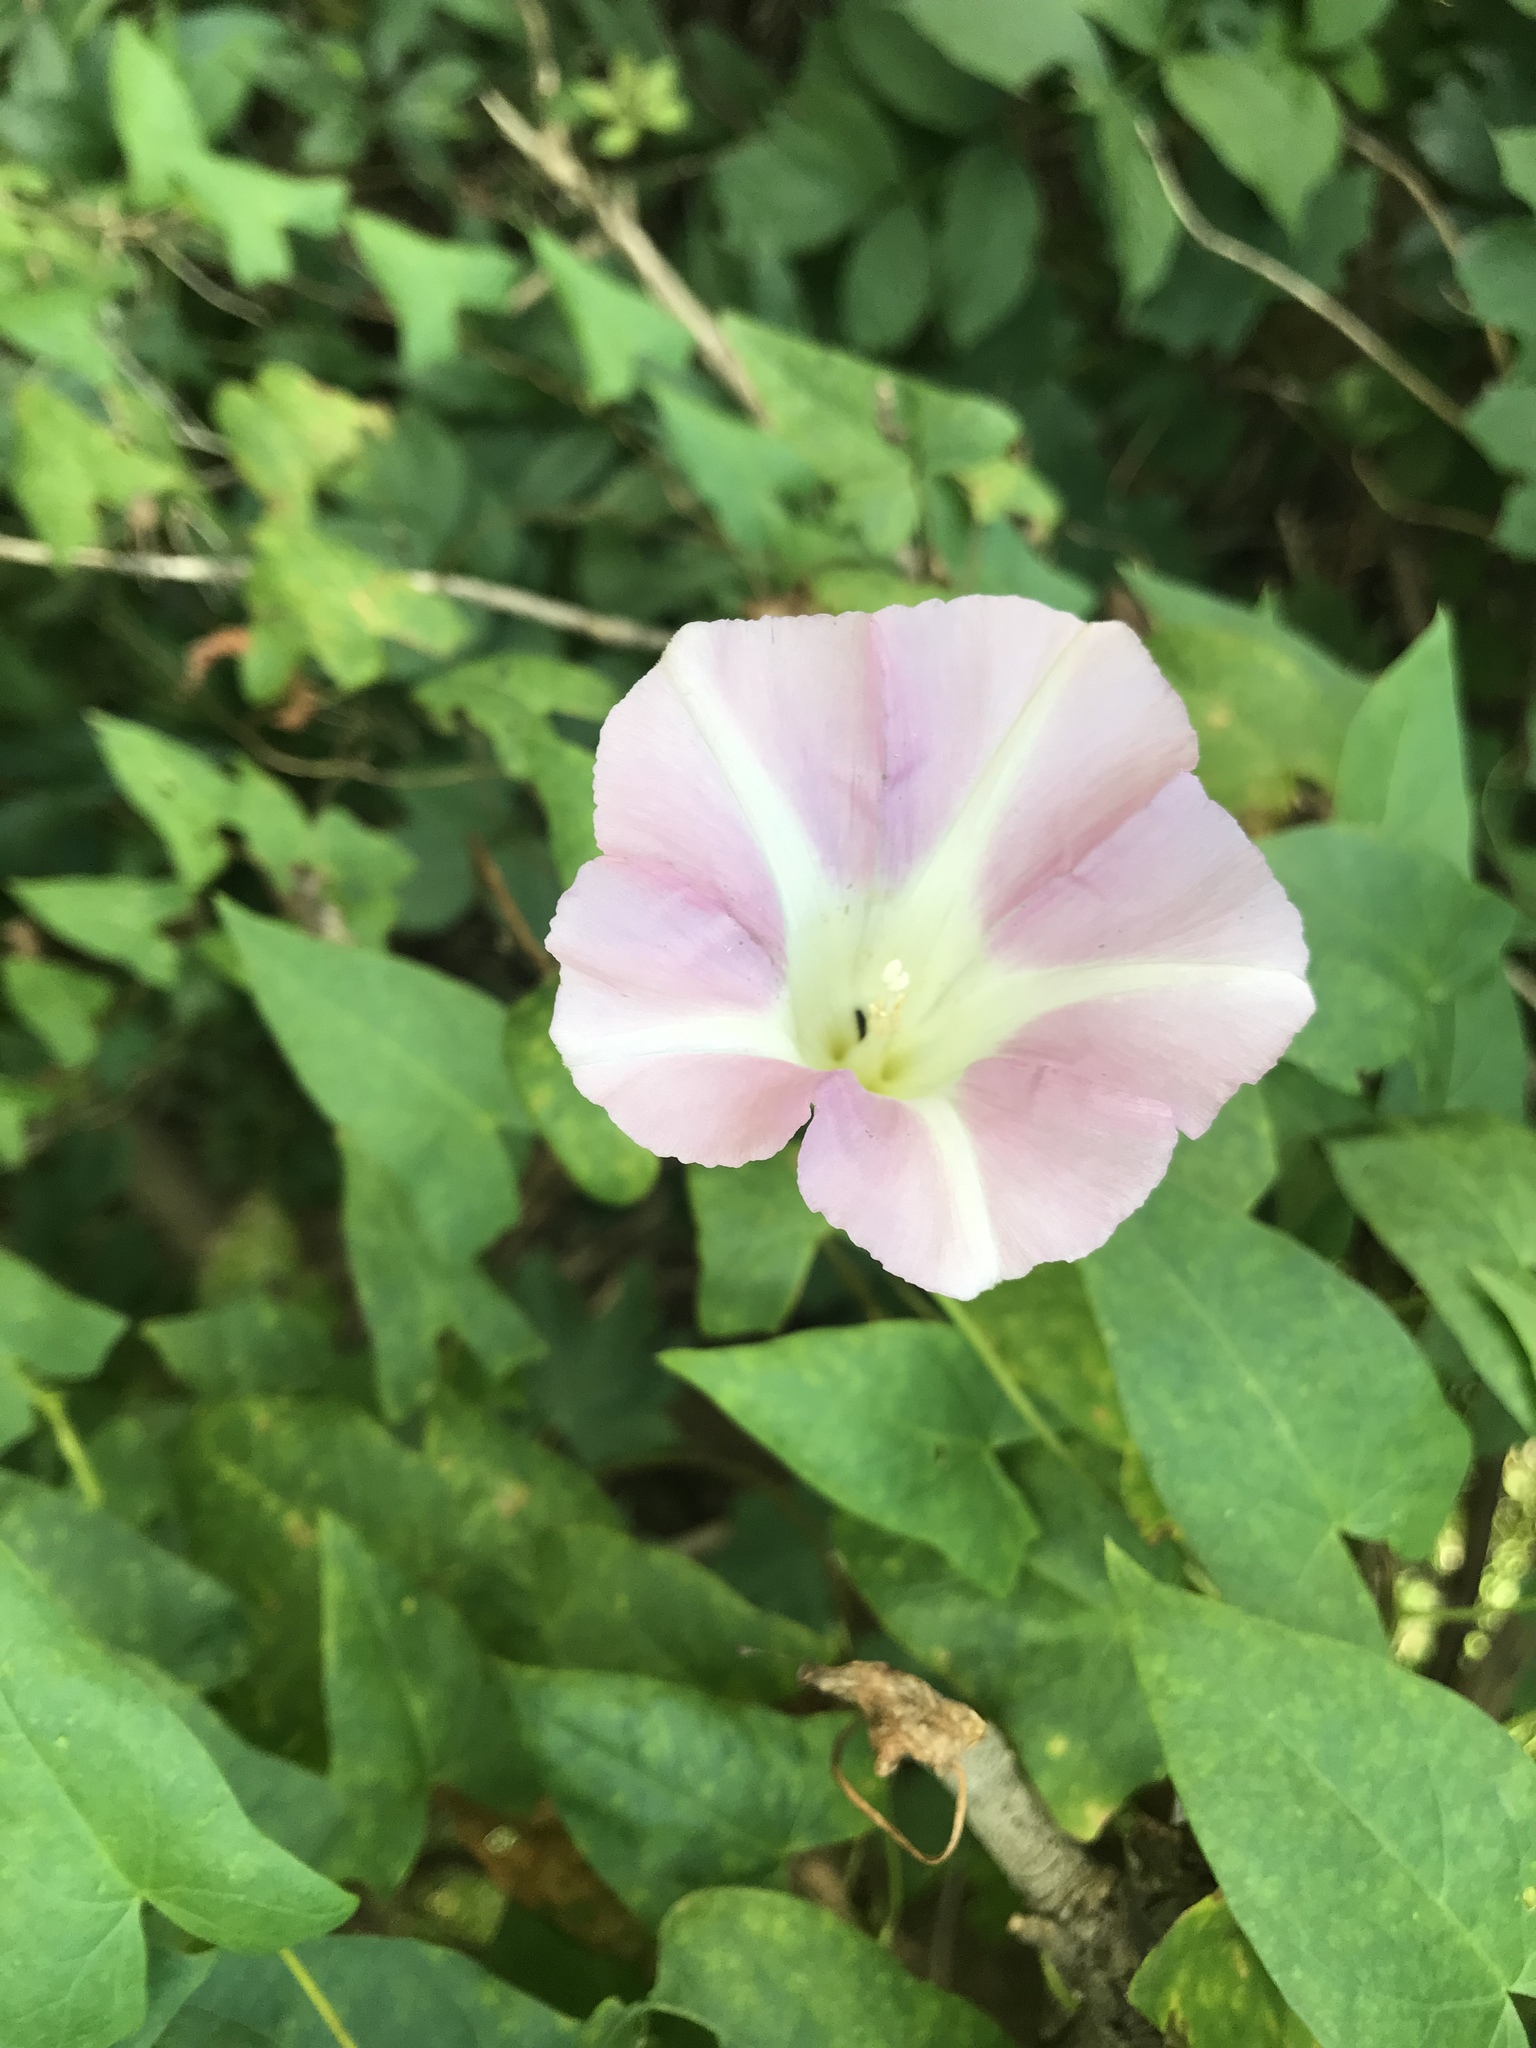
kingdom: Plantae
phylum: Tracheophyta
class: Magnoliopsida
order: Solanales
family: Convolvulaceae
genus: Calystegia
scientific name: Calystegia sepium
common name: Hedge bindweed
